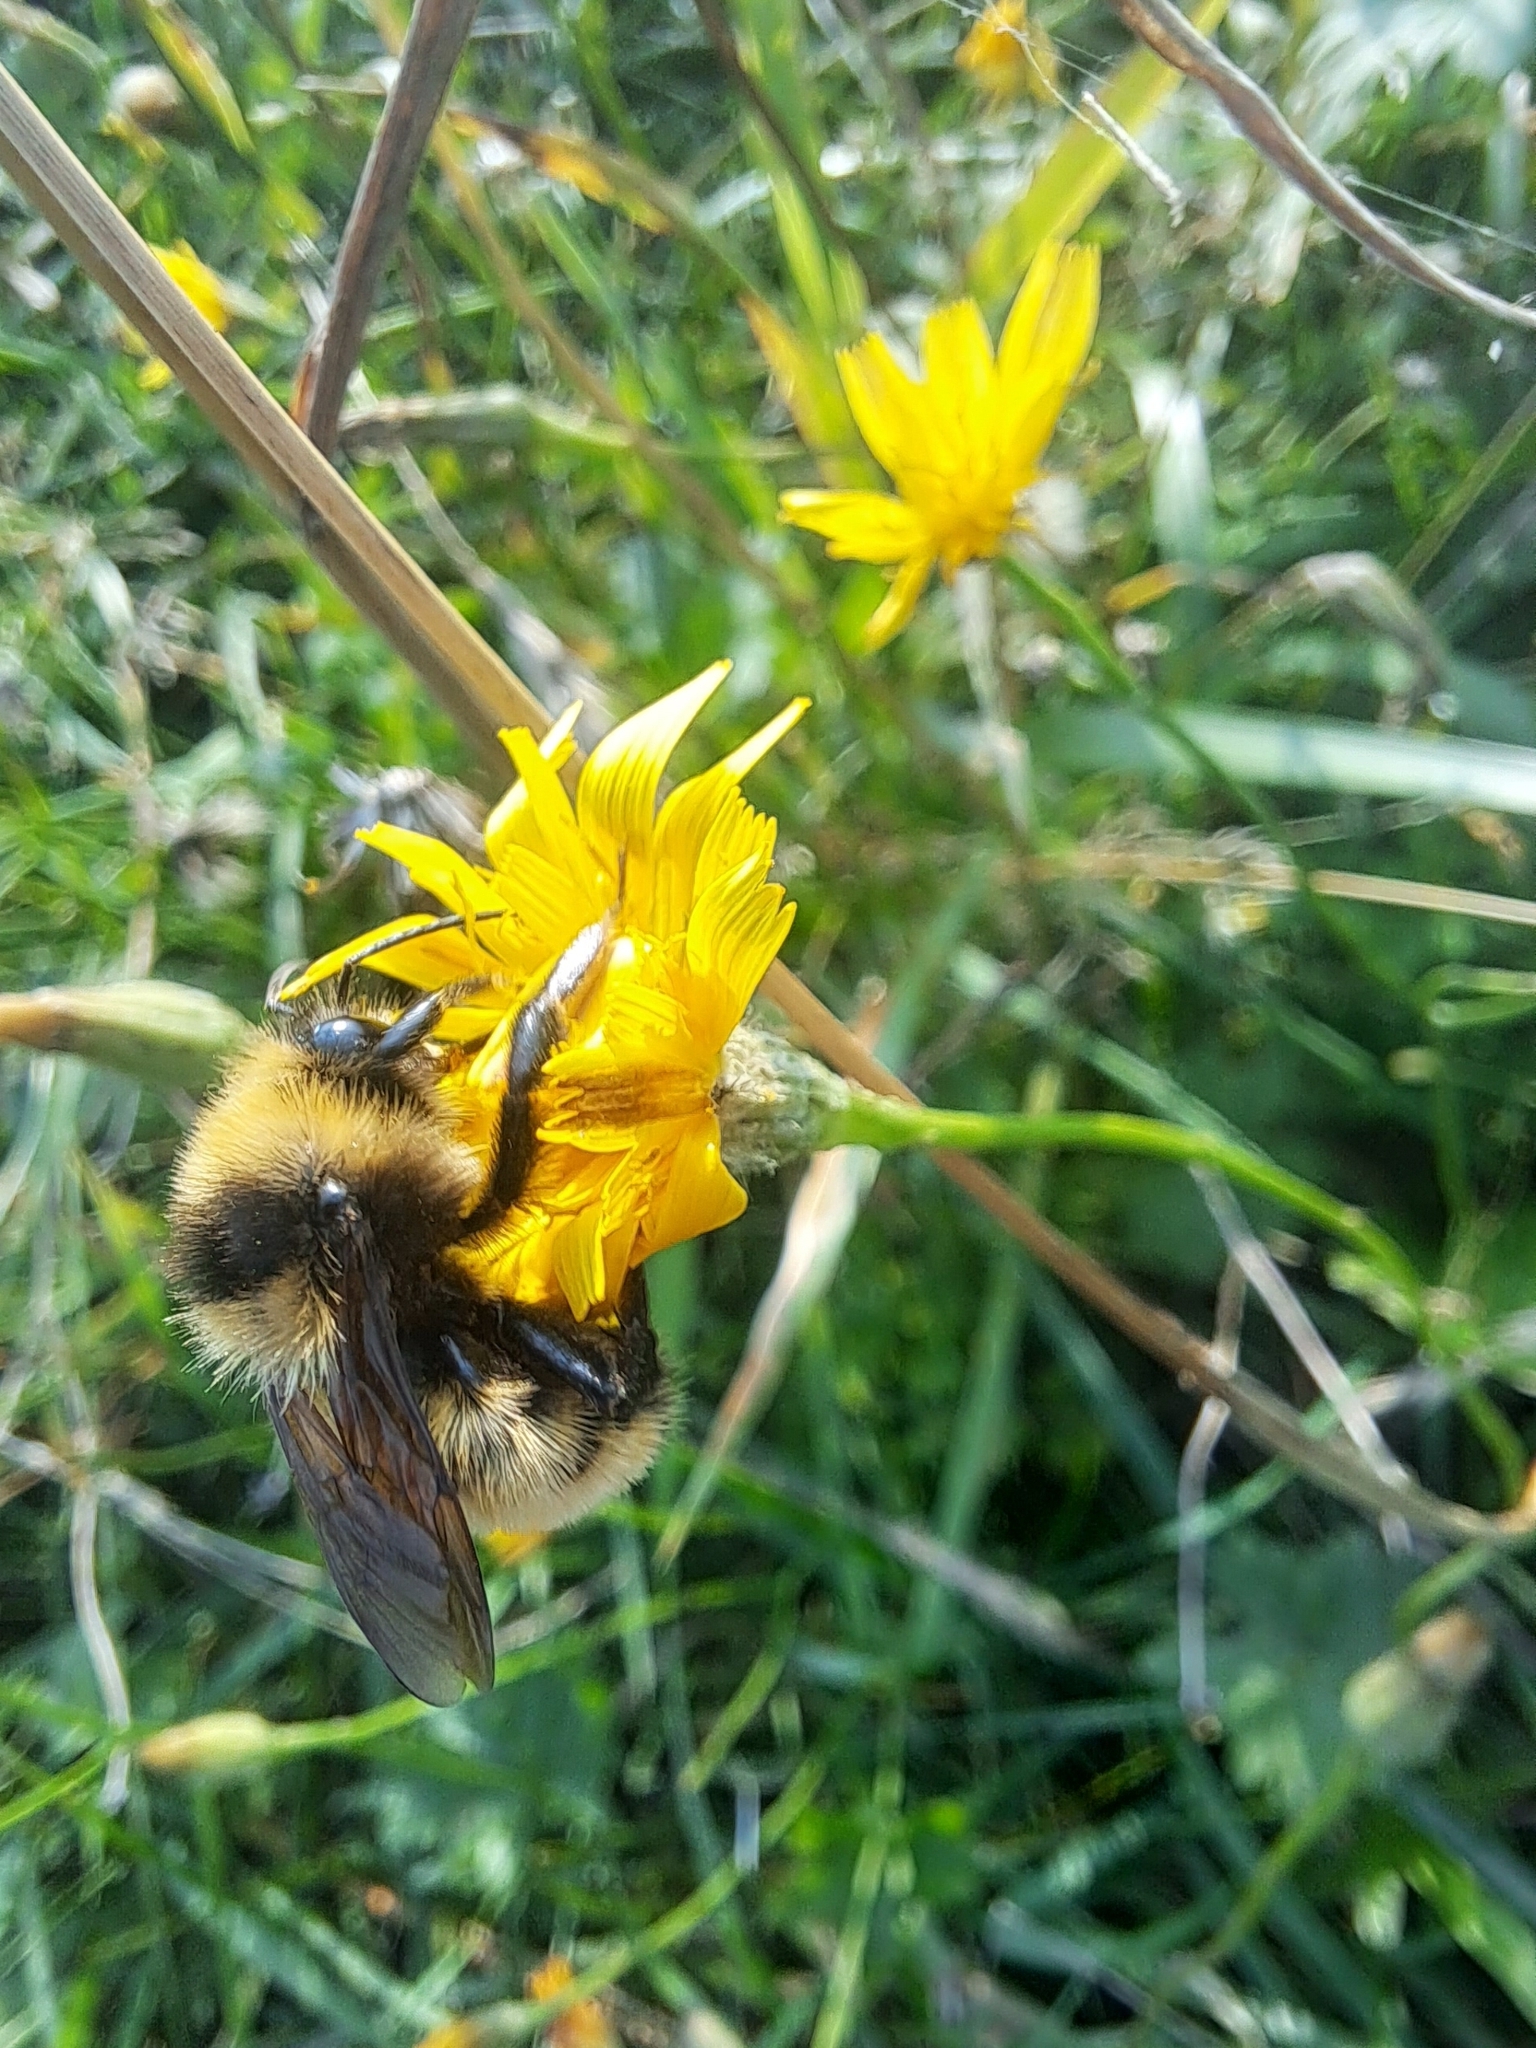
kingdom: Animalia
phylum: Arthropoda
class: Insecta
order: Hymenoptera
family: Apidae
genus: Bombus
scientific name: Bombus borealis
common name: Northern amber bumble bee
